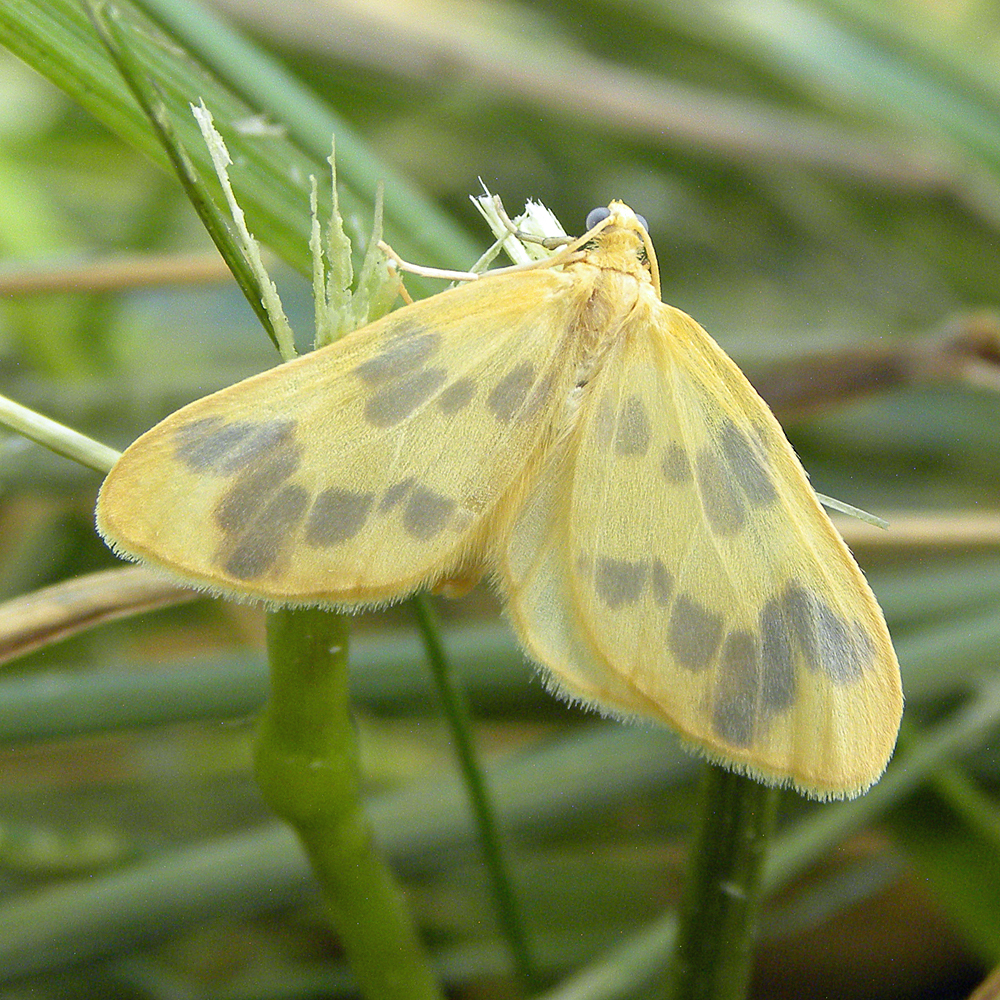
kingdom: Animalia
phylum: Arthropoda
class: Insecta
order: Lepidoptera
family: Geometridae
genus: Eubaphe
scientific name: Eubaphe mendica
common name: Beggar
